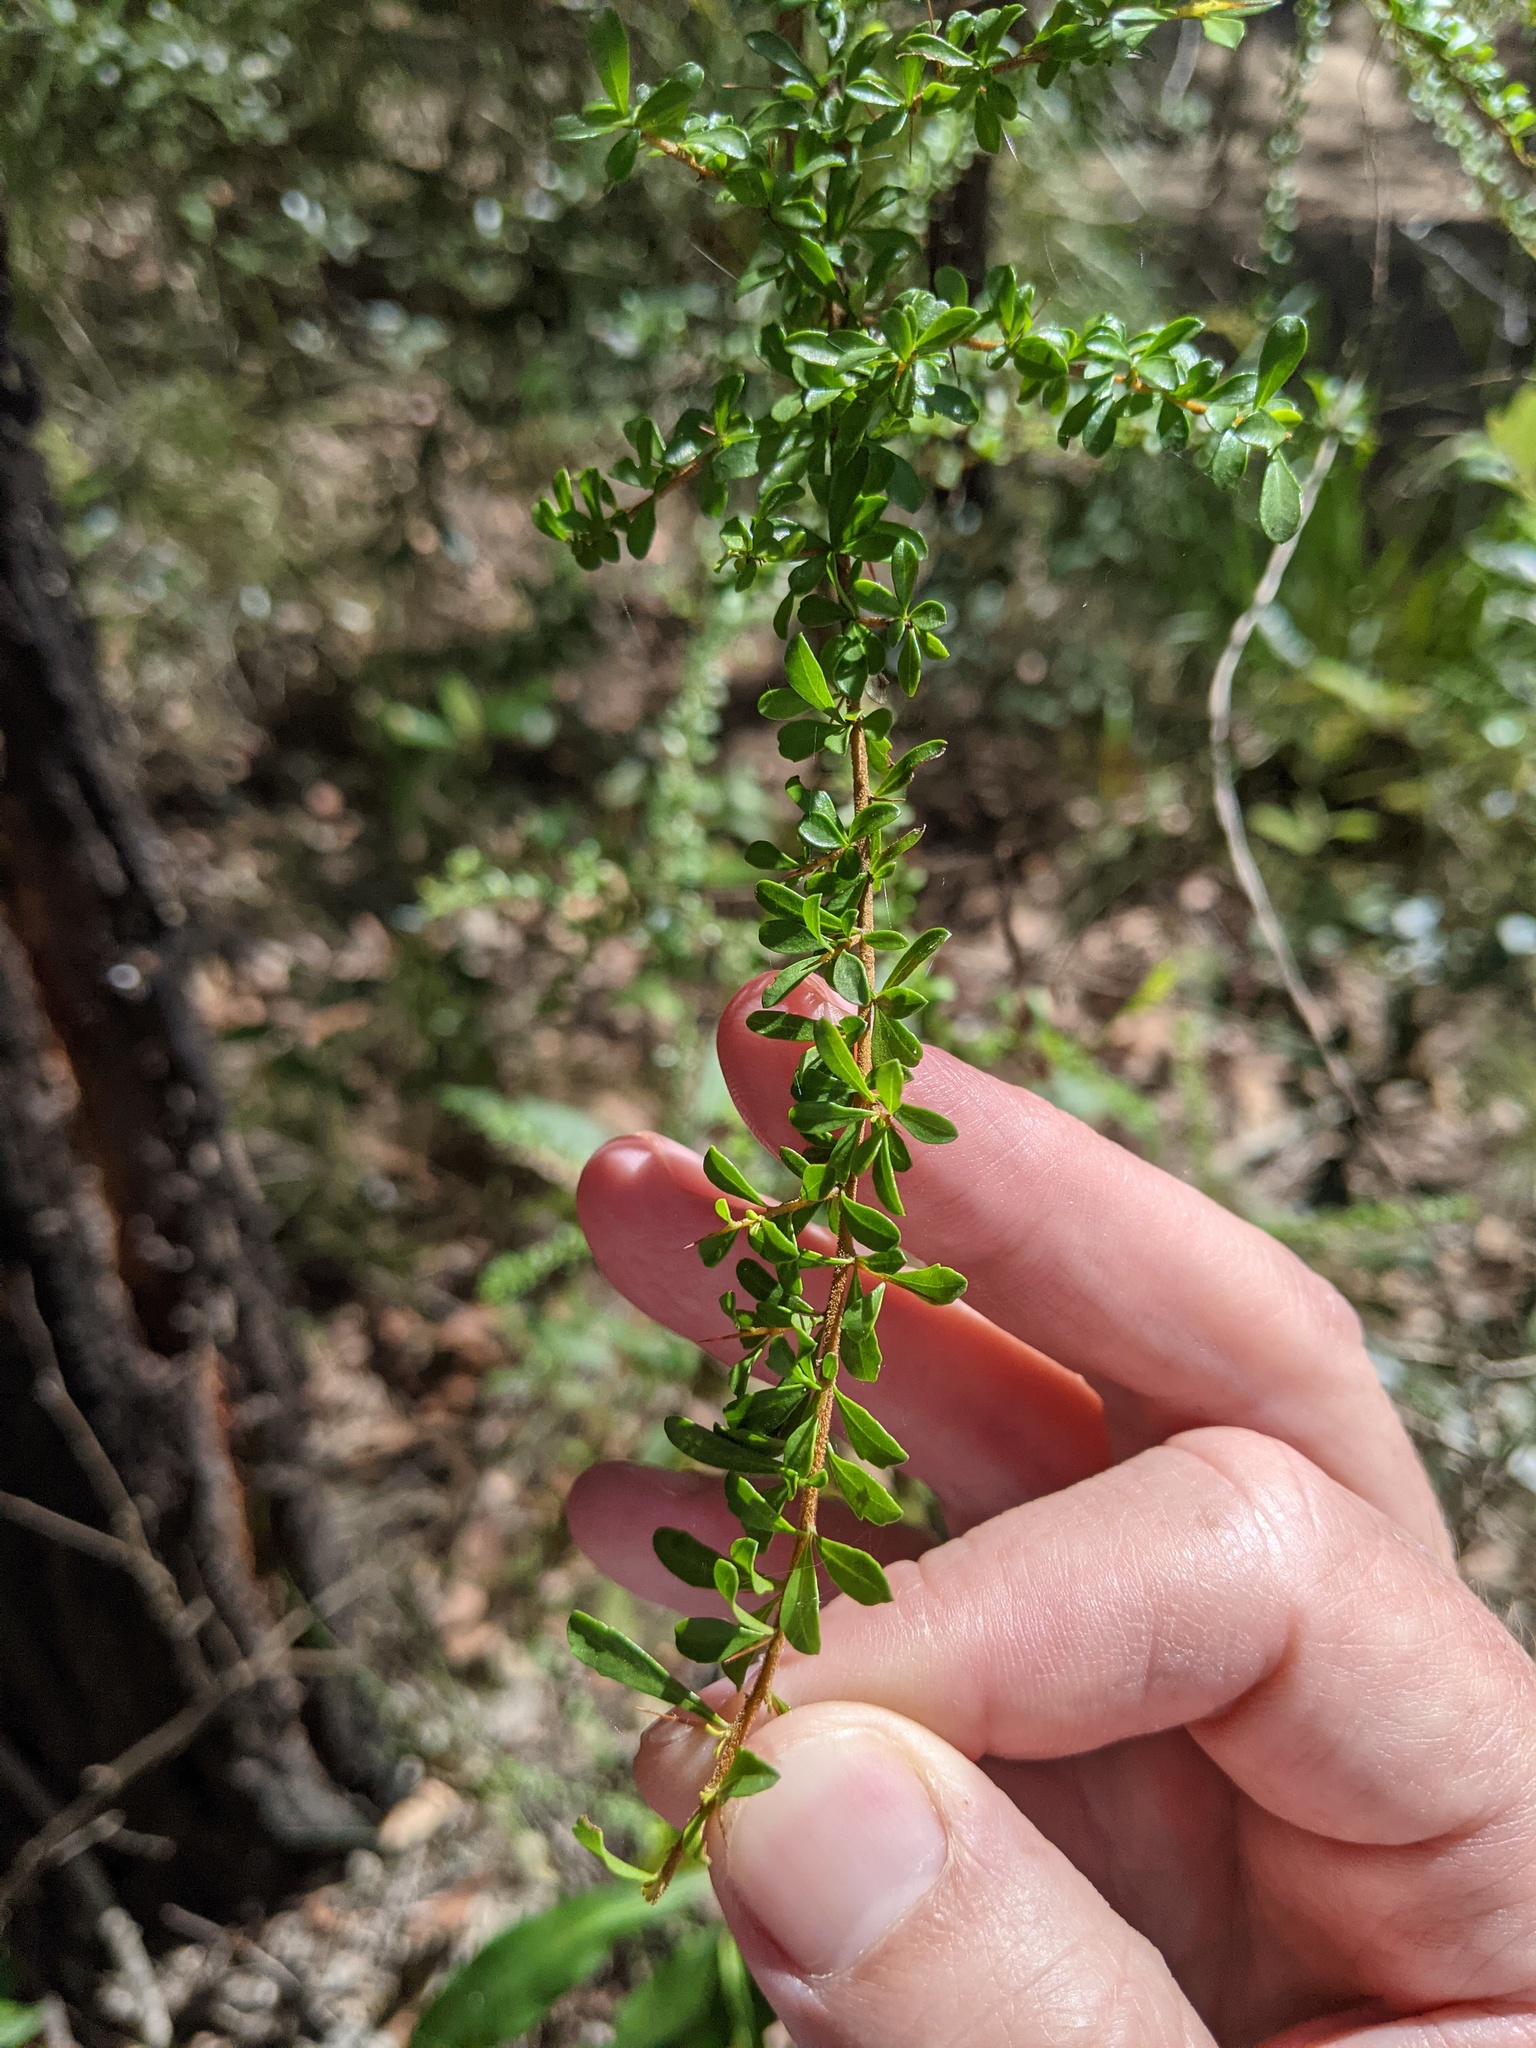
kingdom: Plantae
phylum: Tracheophyta
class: Magnoliopsida
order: Apiales
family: Pittosporaceae
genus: Bursaria
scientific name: Bursaria spinosa
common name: Australian blackthorn
